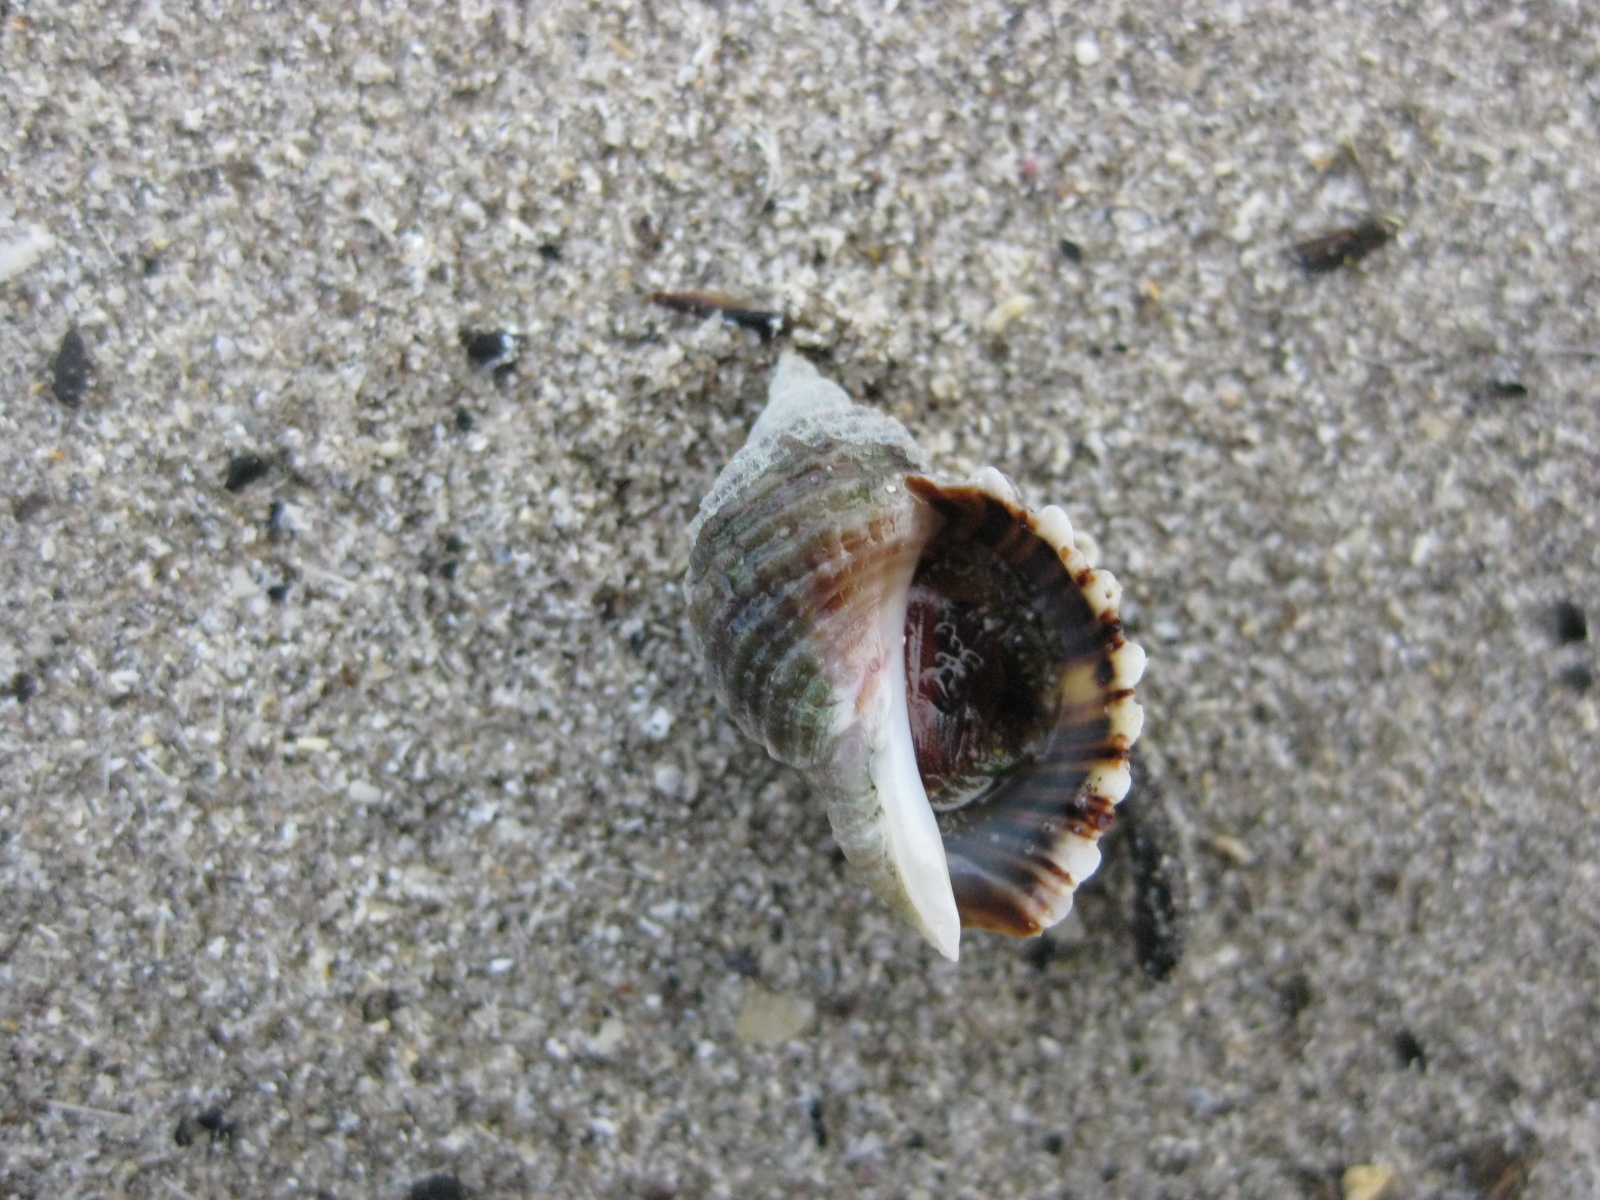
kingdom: Animalia
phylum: Mollusca
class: Gastropoda
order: Neogastropoda
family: Muricidae
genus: Dicathais
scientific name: Dicathais orbita
